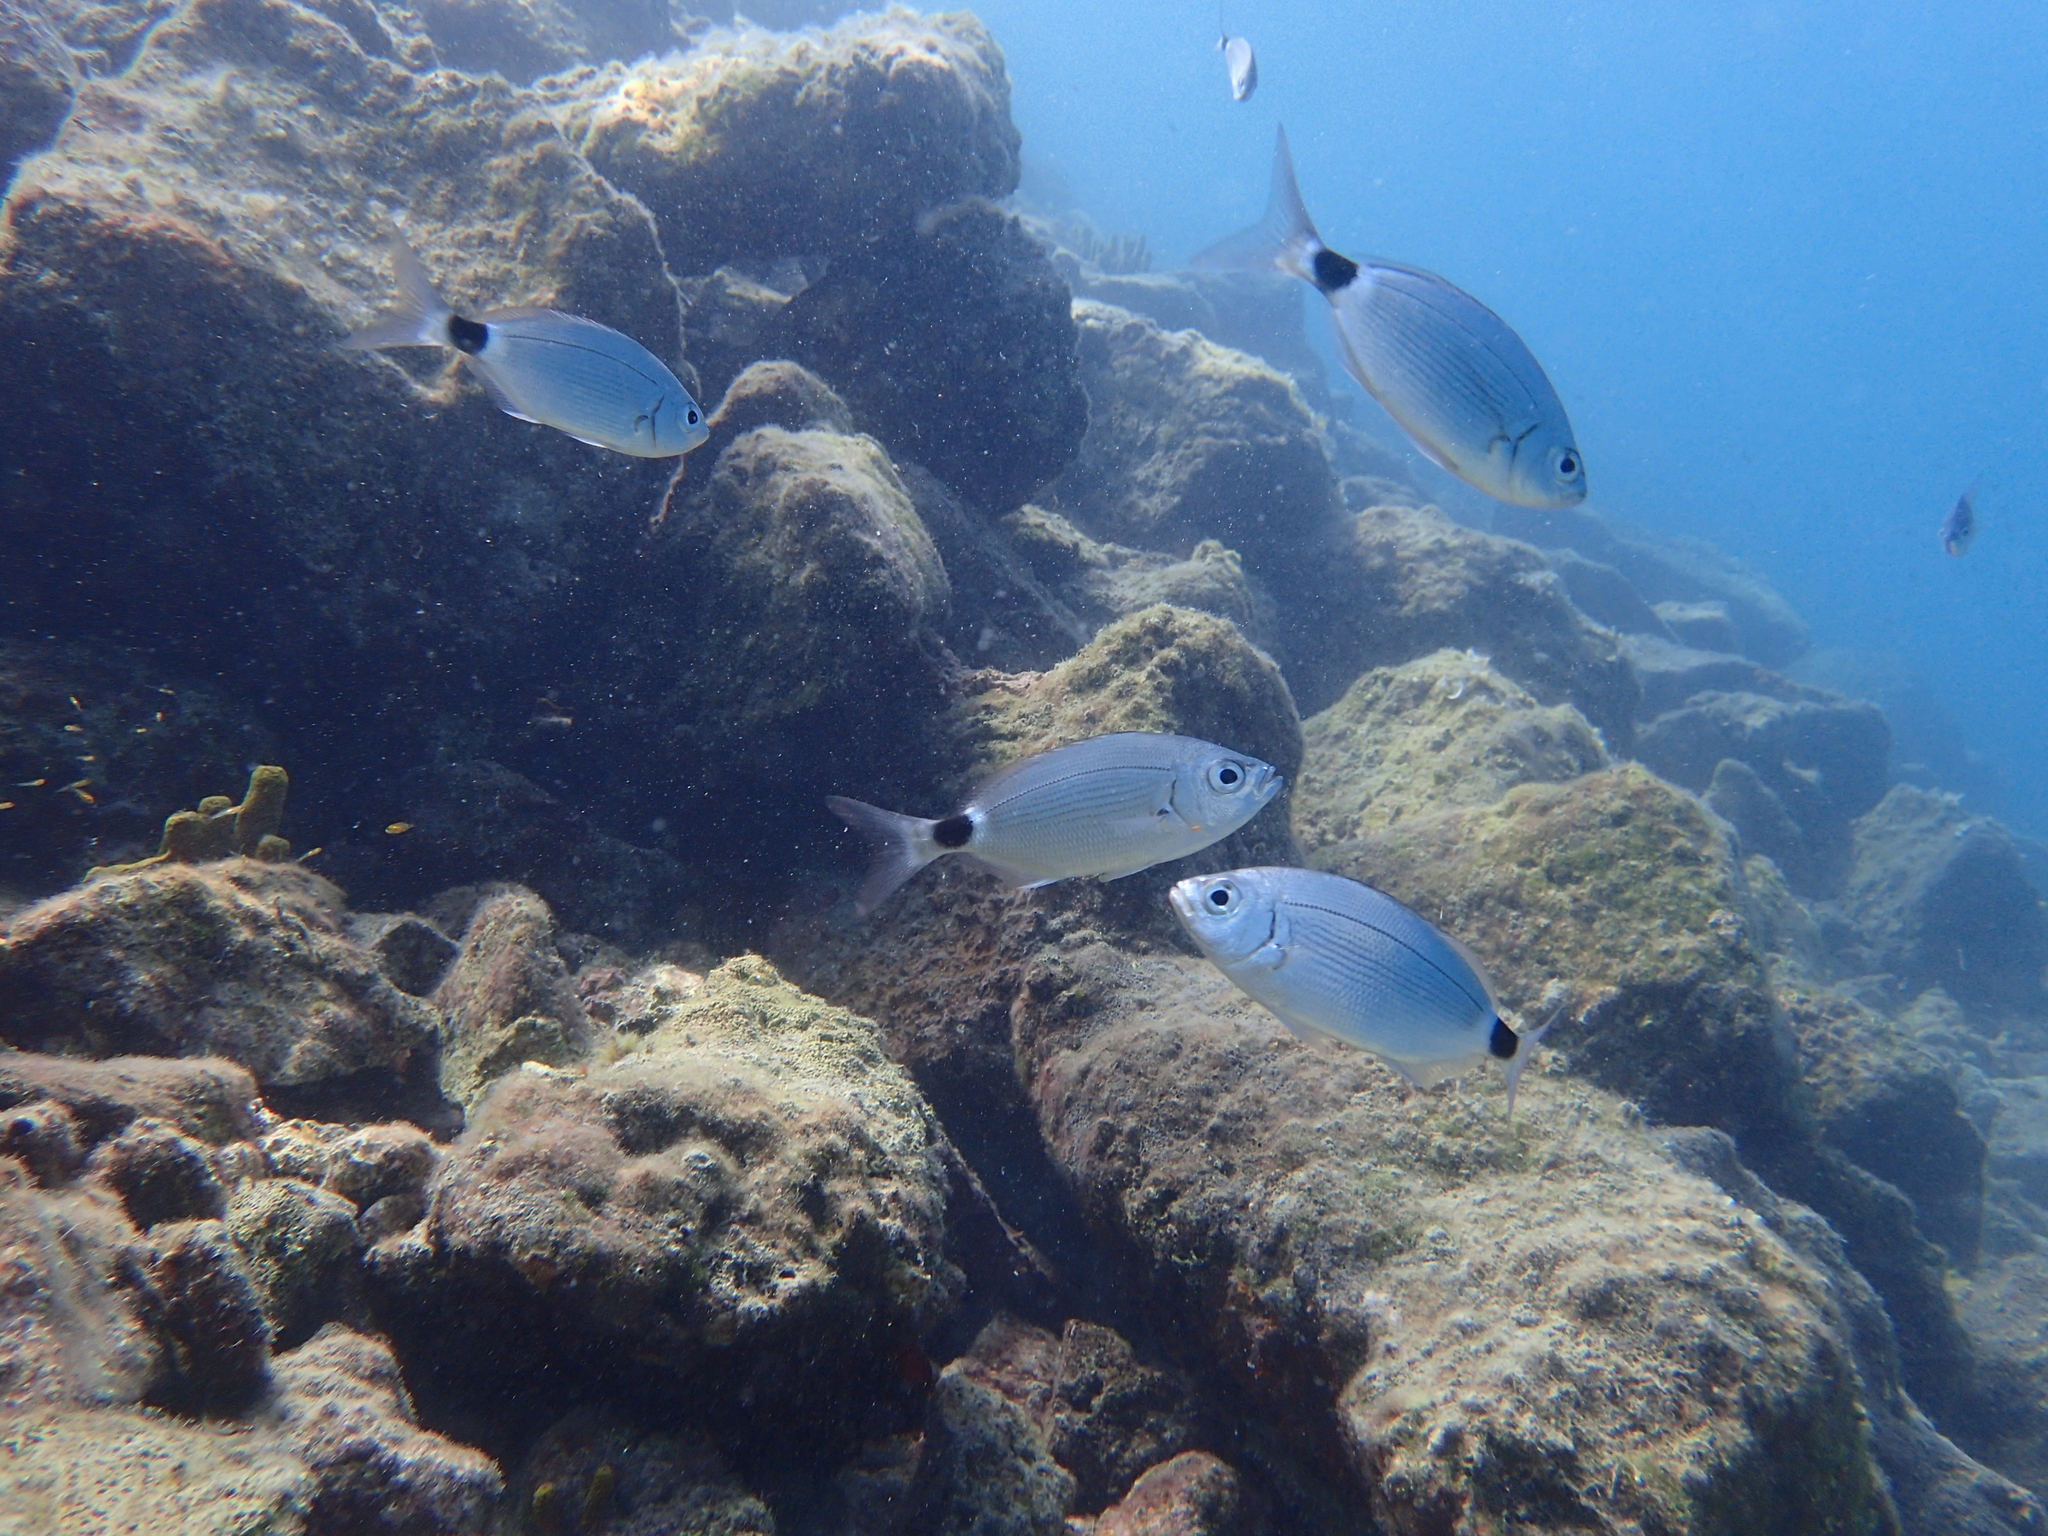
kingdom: Animalia
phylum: Chordata
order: Perciformes
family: Sparidae
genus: Oblada
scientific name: Oblada melanura
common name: Saddled seabream
